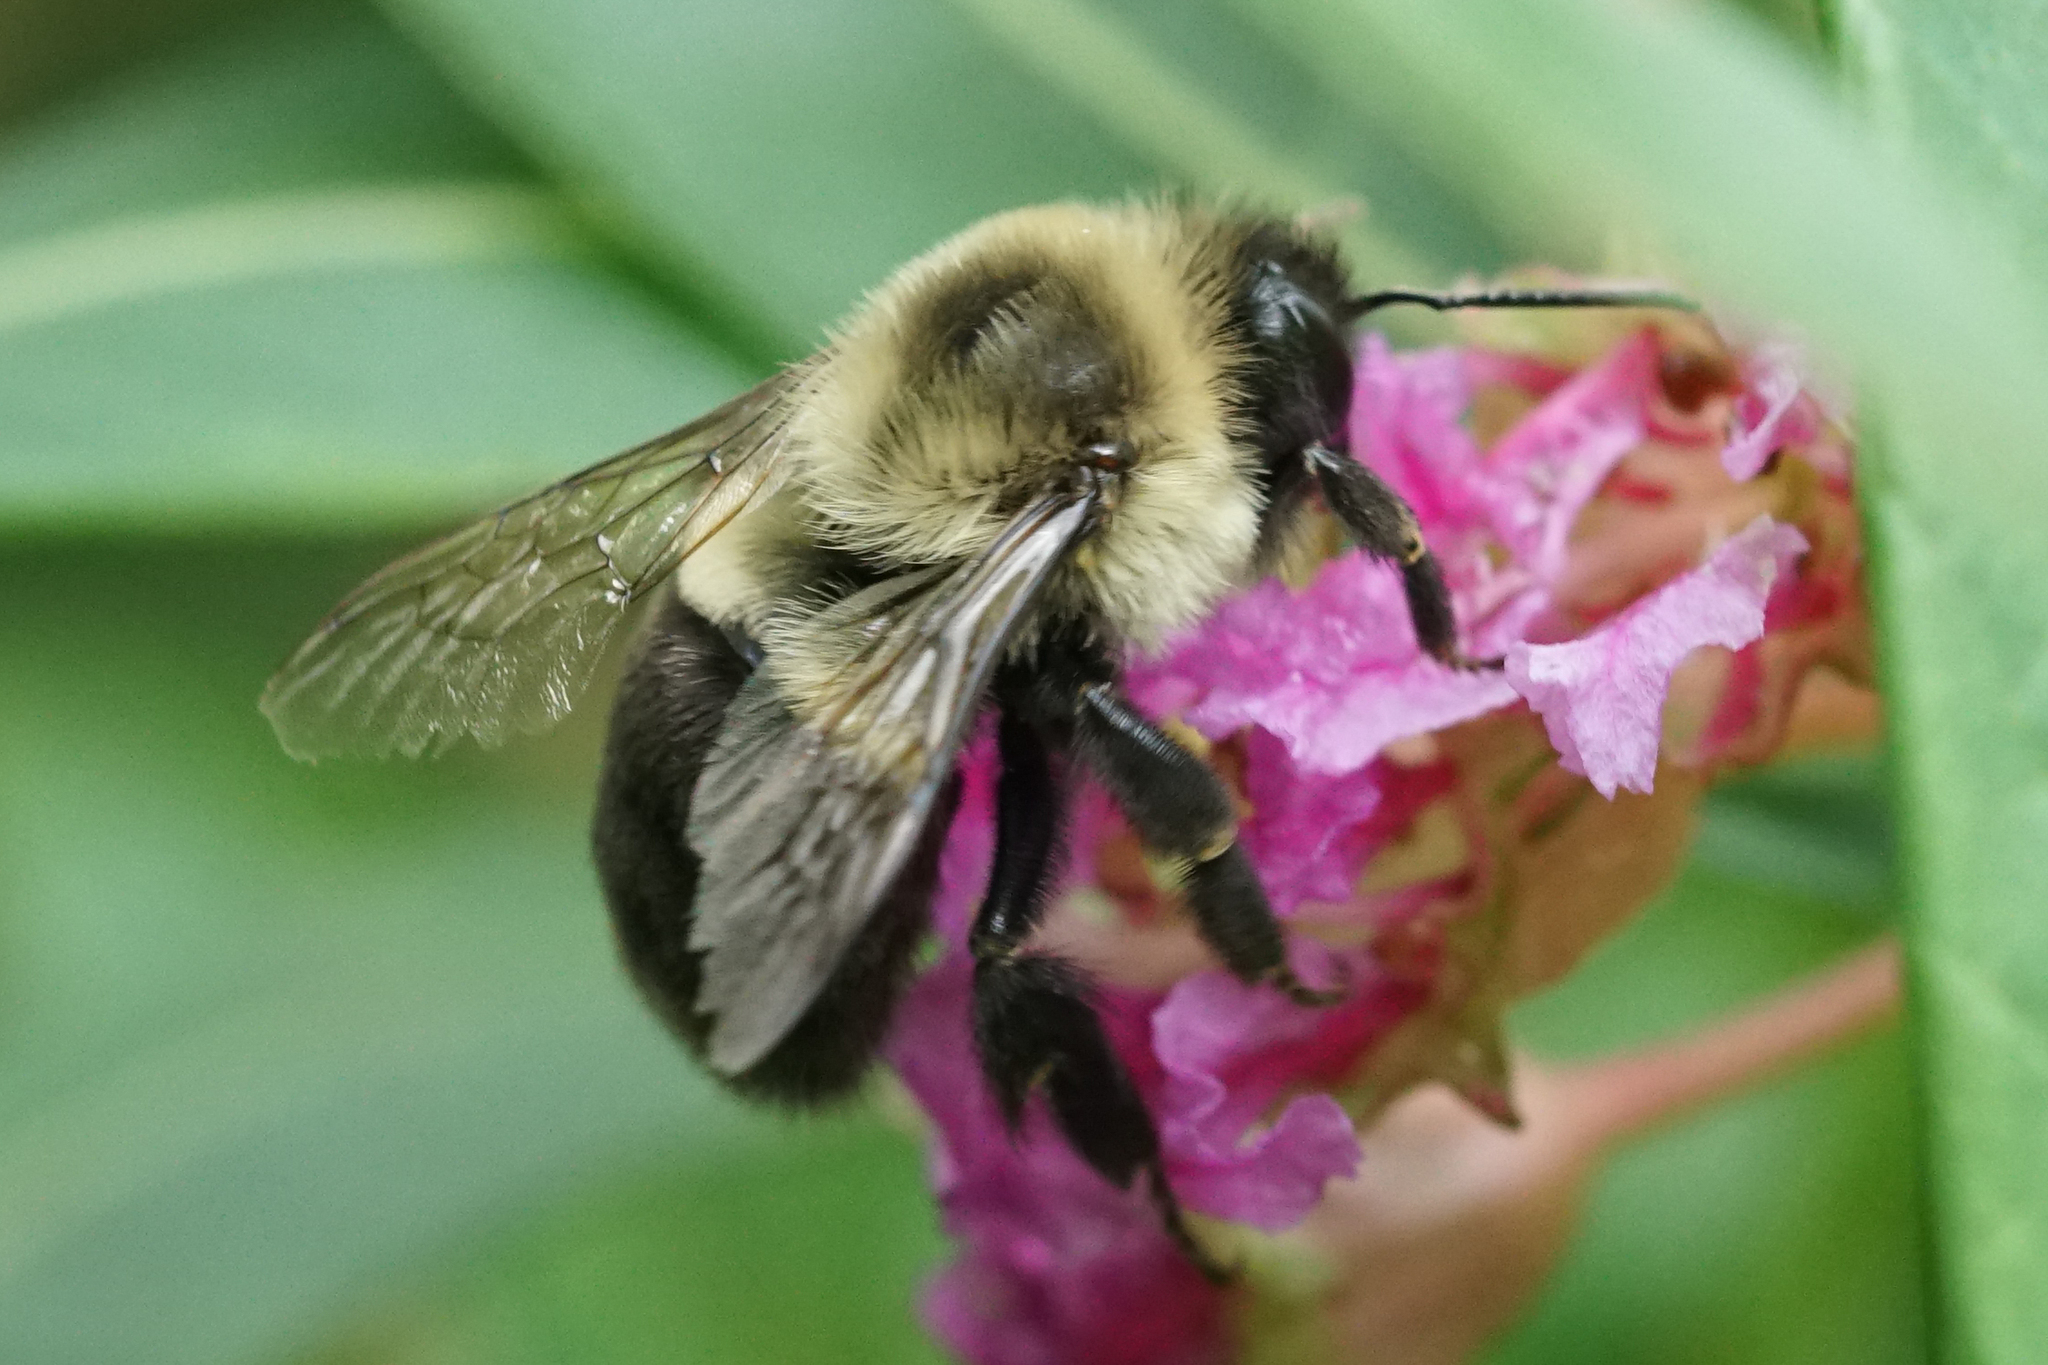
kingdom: Animalia
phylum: Arthropoda
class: Insecta
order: Hymenoptera
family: Apidae
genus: Bombus
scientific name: Bombus impatiens
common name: Common eastern bumble bee
